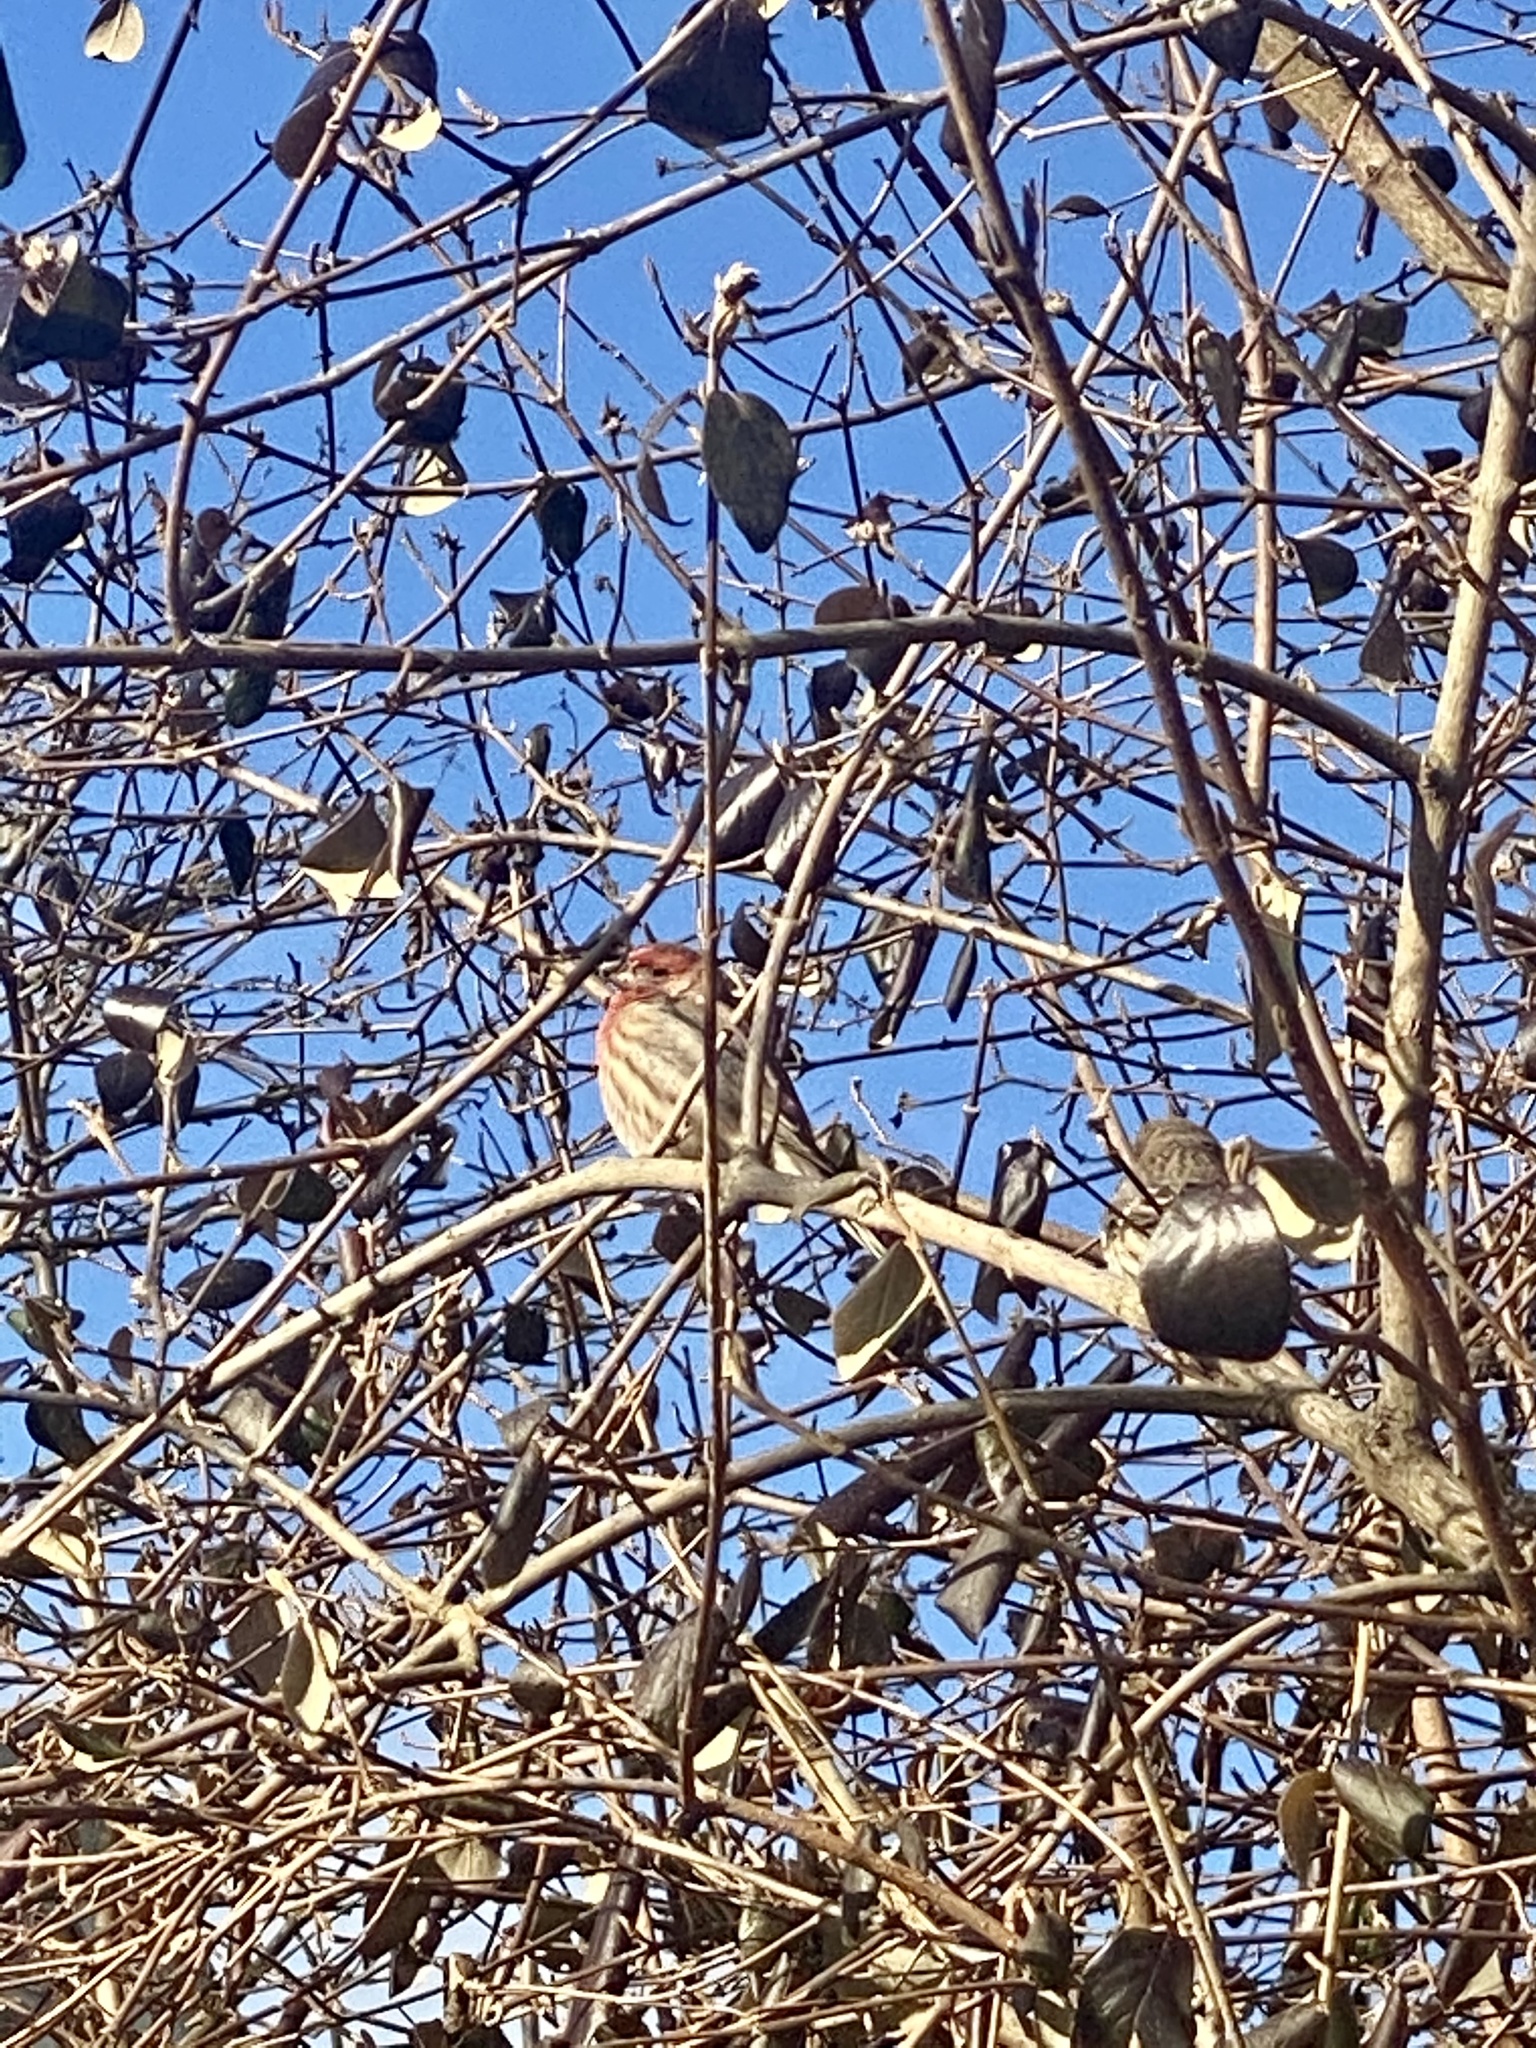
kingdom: Animalia
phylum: Chordata
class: Aves
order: Passeriformes
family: Fringillidae
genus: Haemorhous
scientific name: Haemorhous mexicanus
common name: House finch
